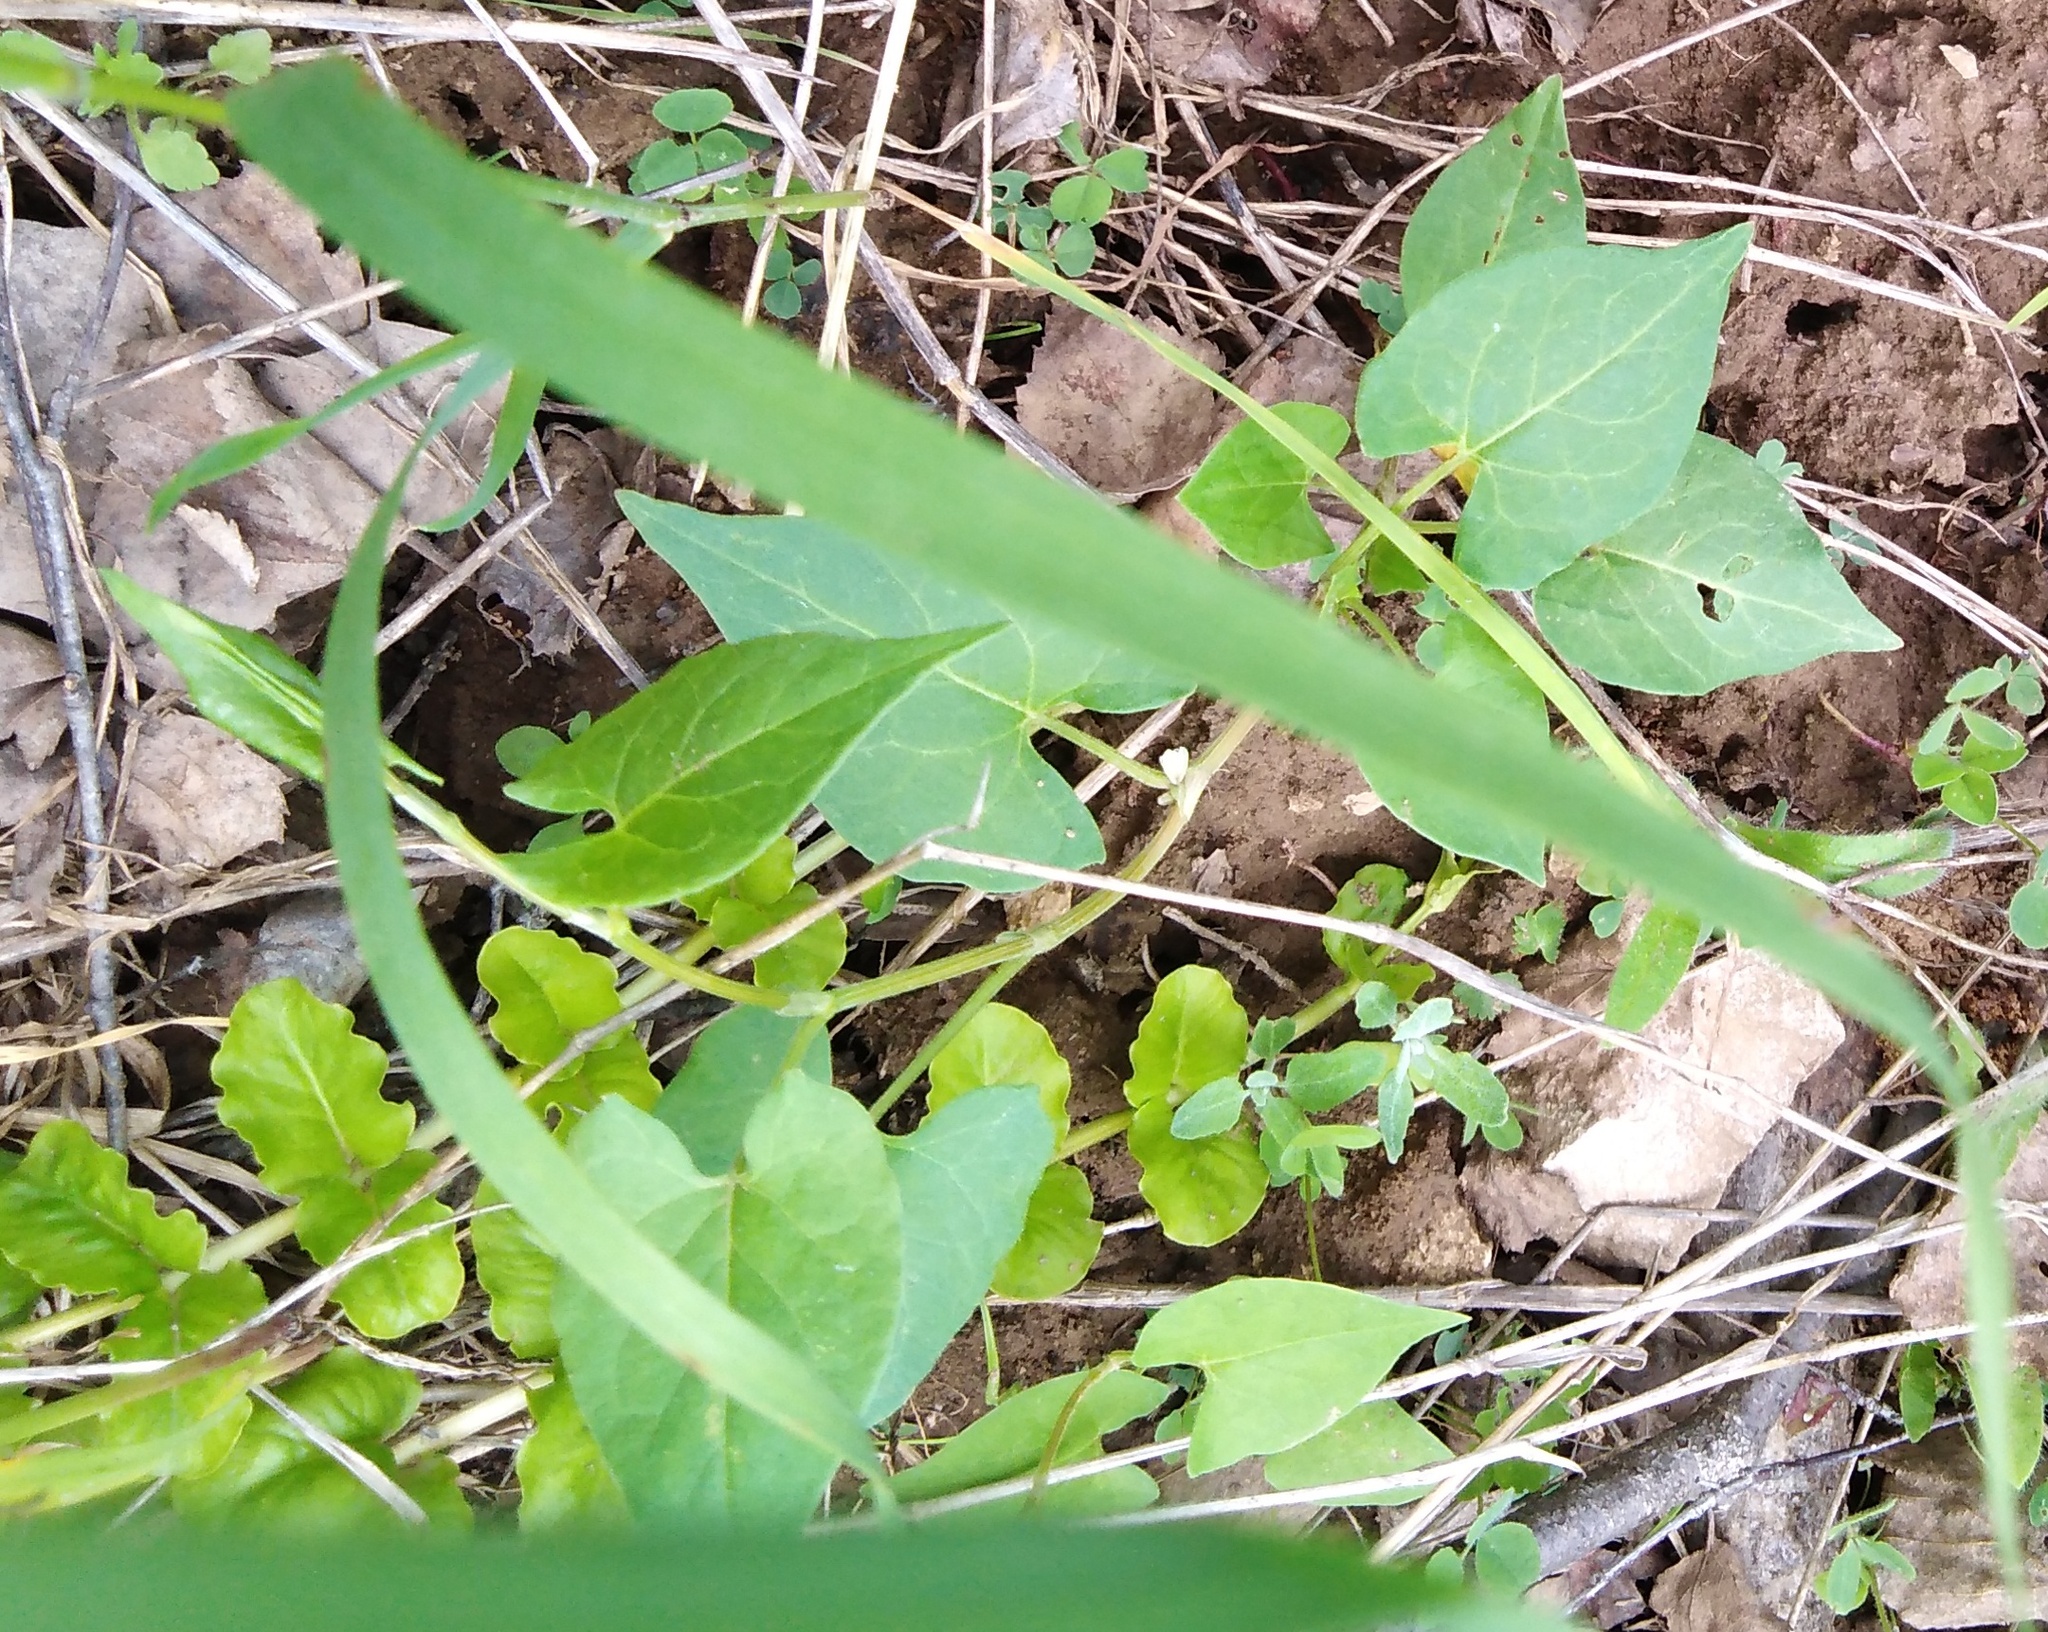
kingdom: Plantae
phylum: Tracheophyta
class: Magnoliopsida
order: Caryophyllales
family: Polygonaceae
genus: Fallopia
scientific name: Fallopia convolvulus
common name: Black bindweed
